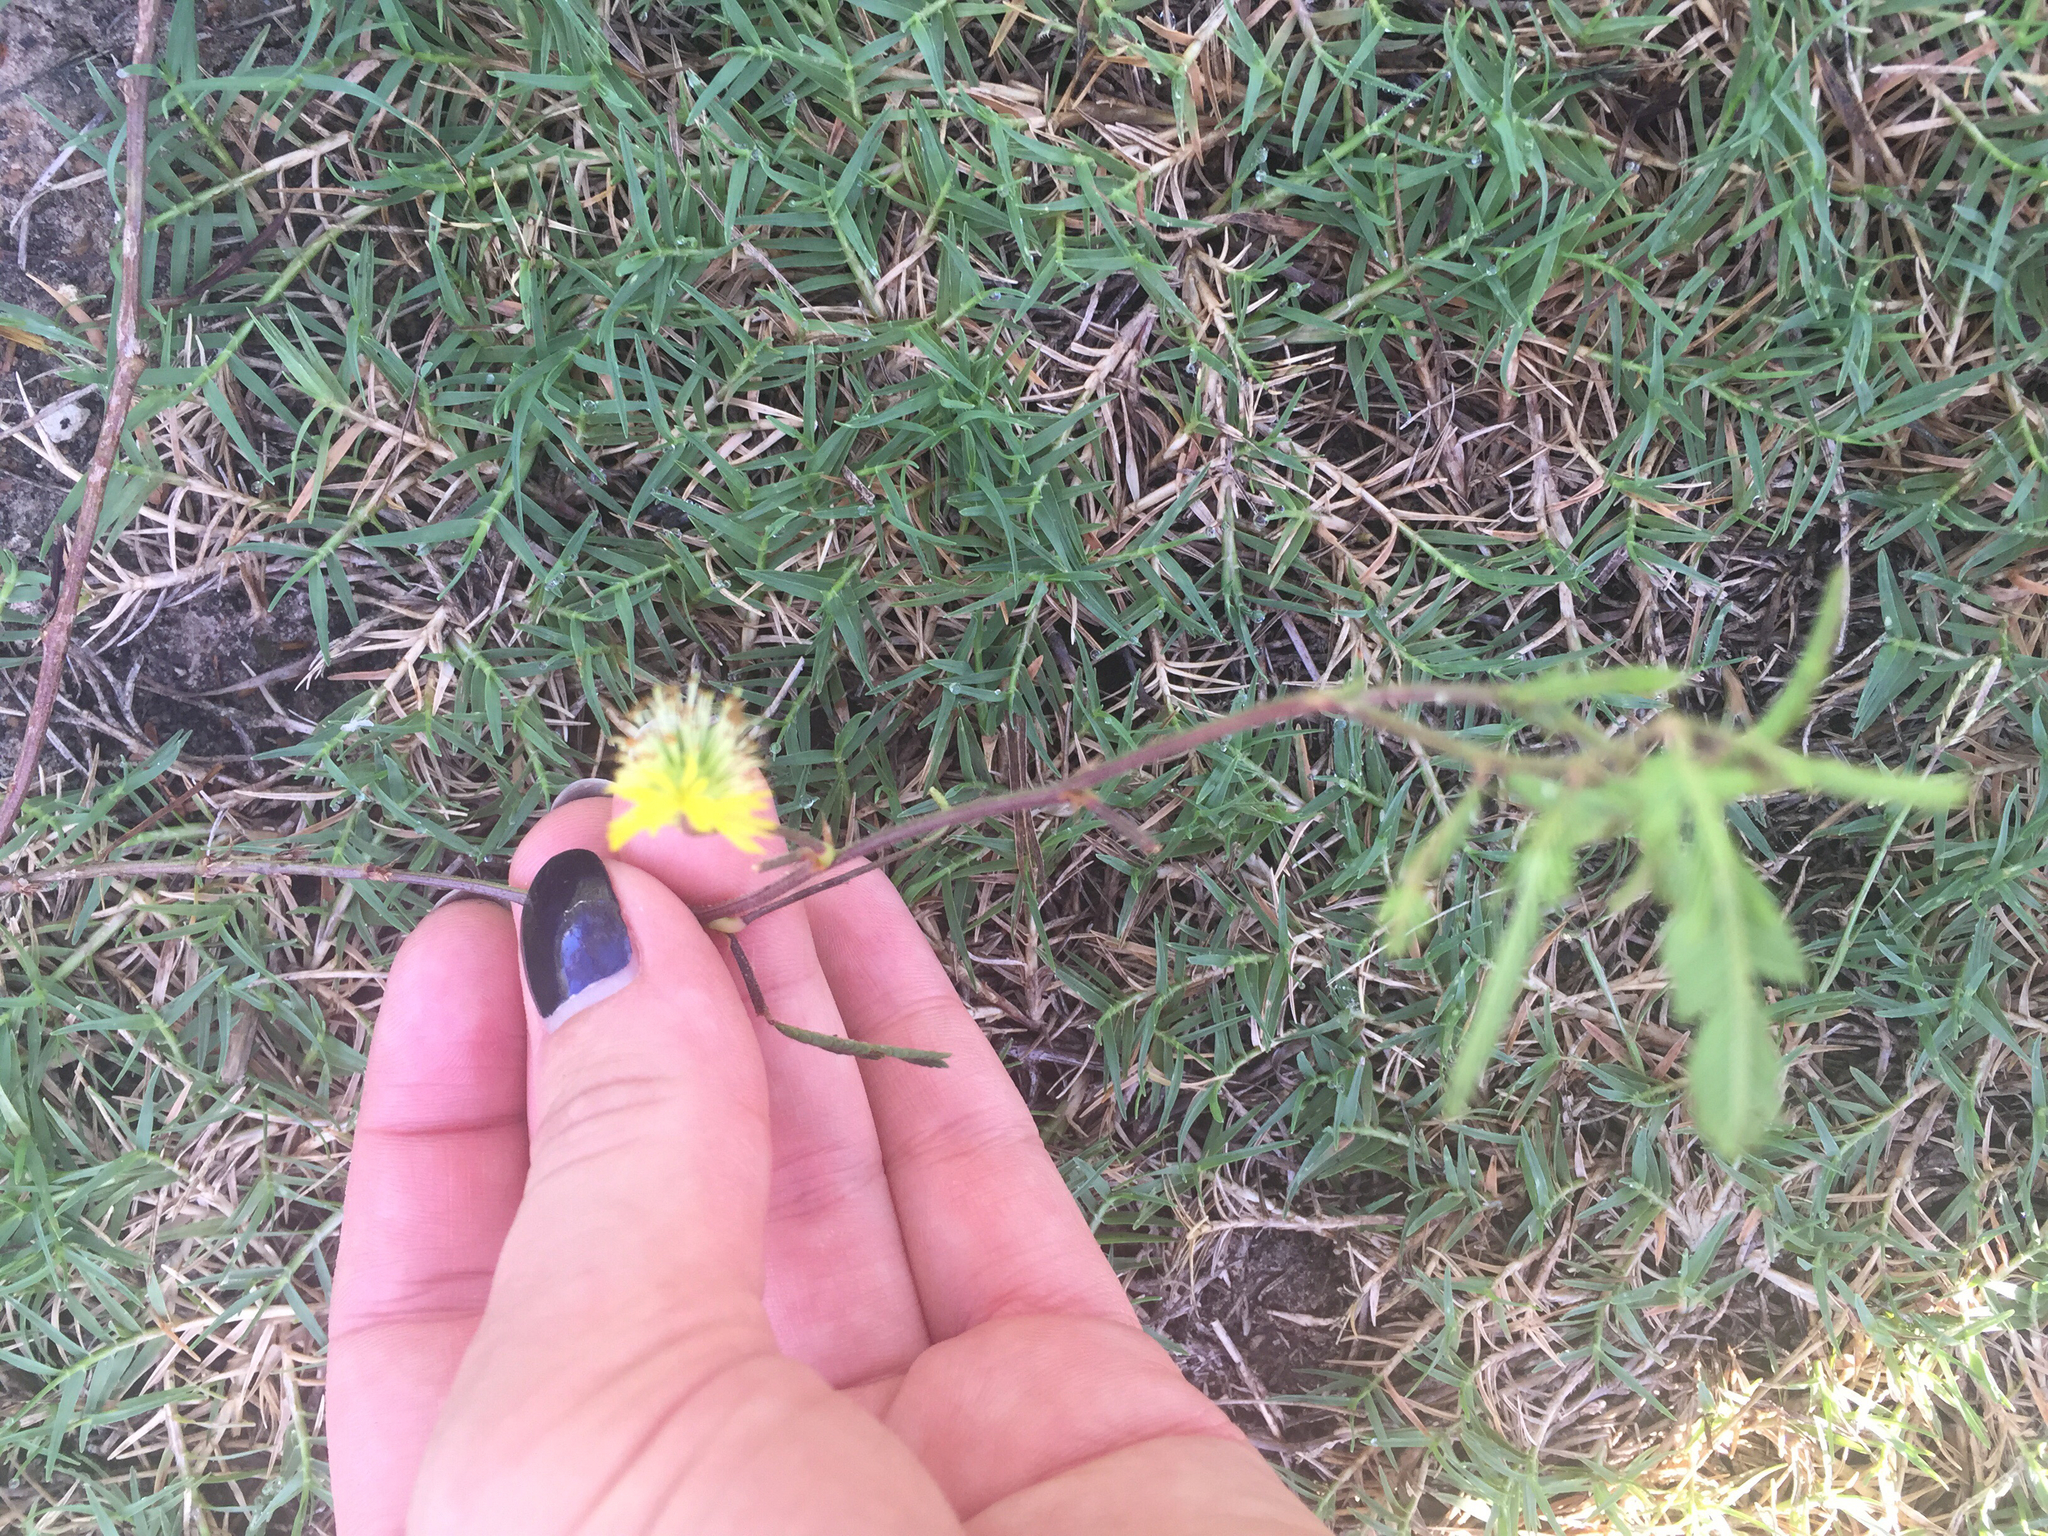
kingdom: Plantae
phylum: Tracheophyta
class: Magnoliopsida
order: Fabales
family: Fabaceae
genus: Neptunia
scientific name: Neptunia pubescens
